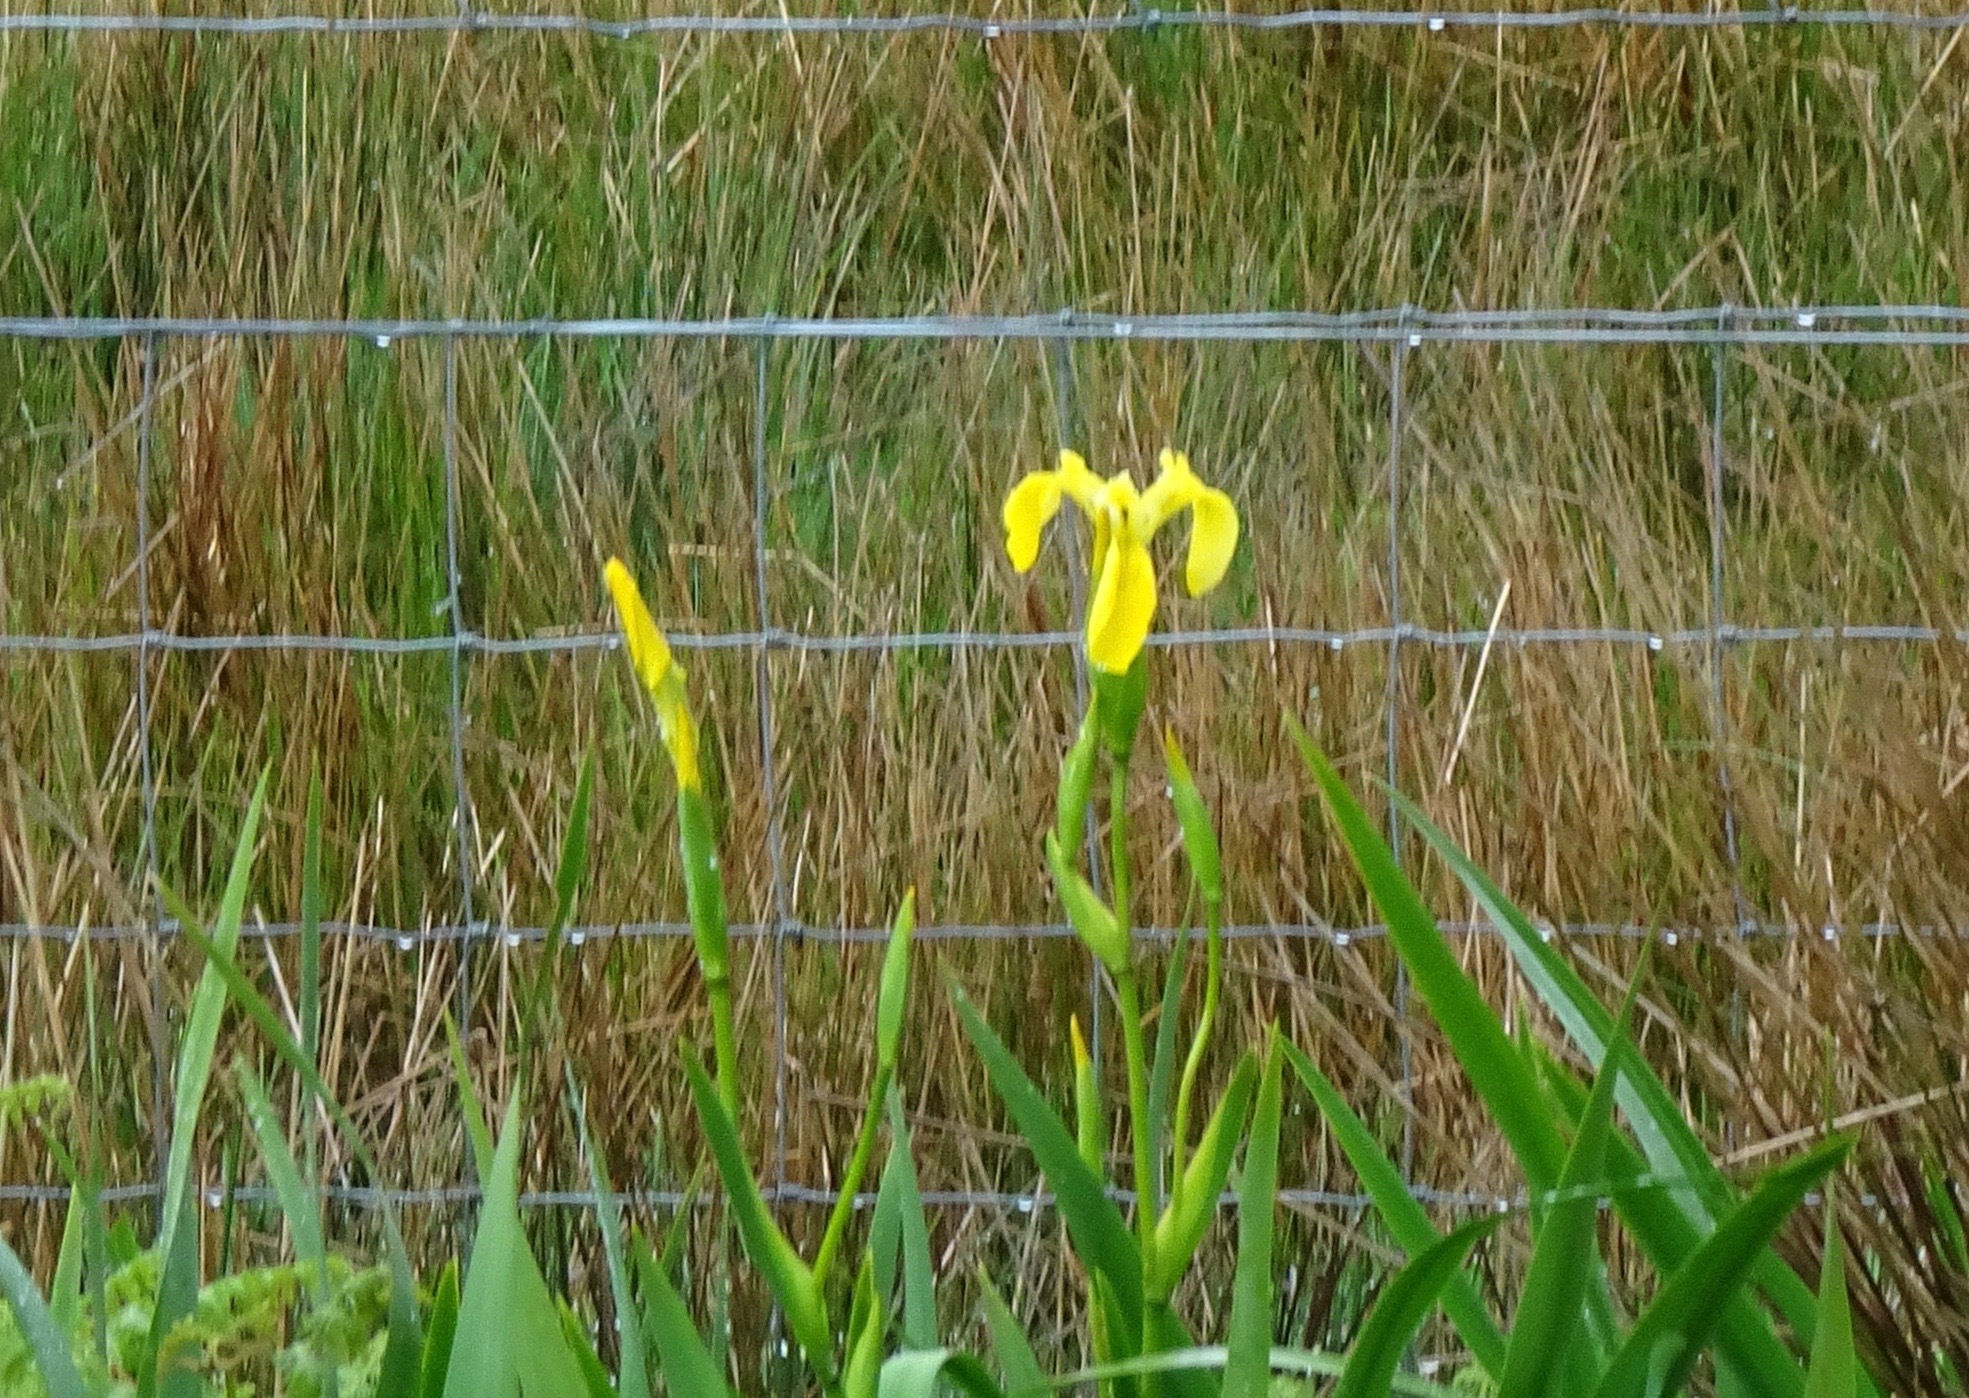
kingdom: Plantae
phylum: Tracheophyta
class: Liliopsida
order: Asparagales
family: Iridaceae
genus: Iris
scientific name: Iris pseudacorus
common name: Yellow flag
